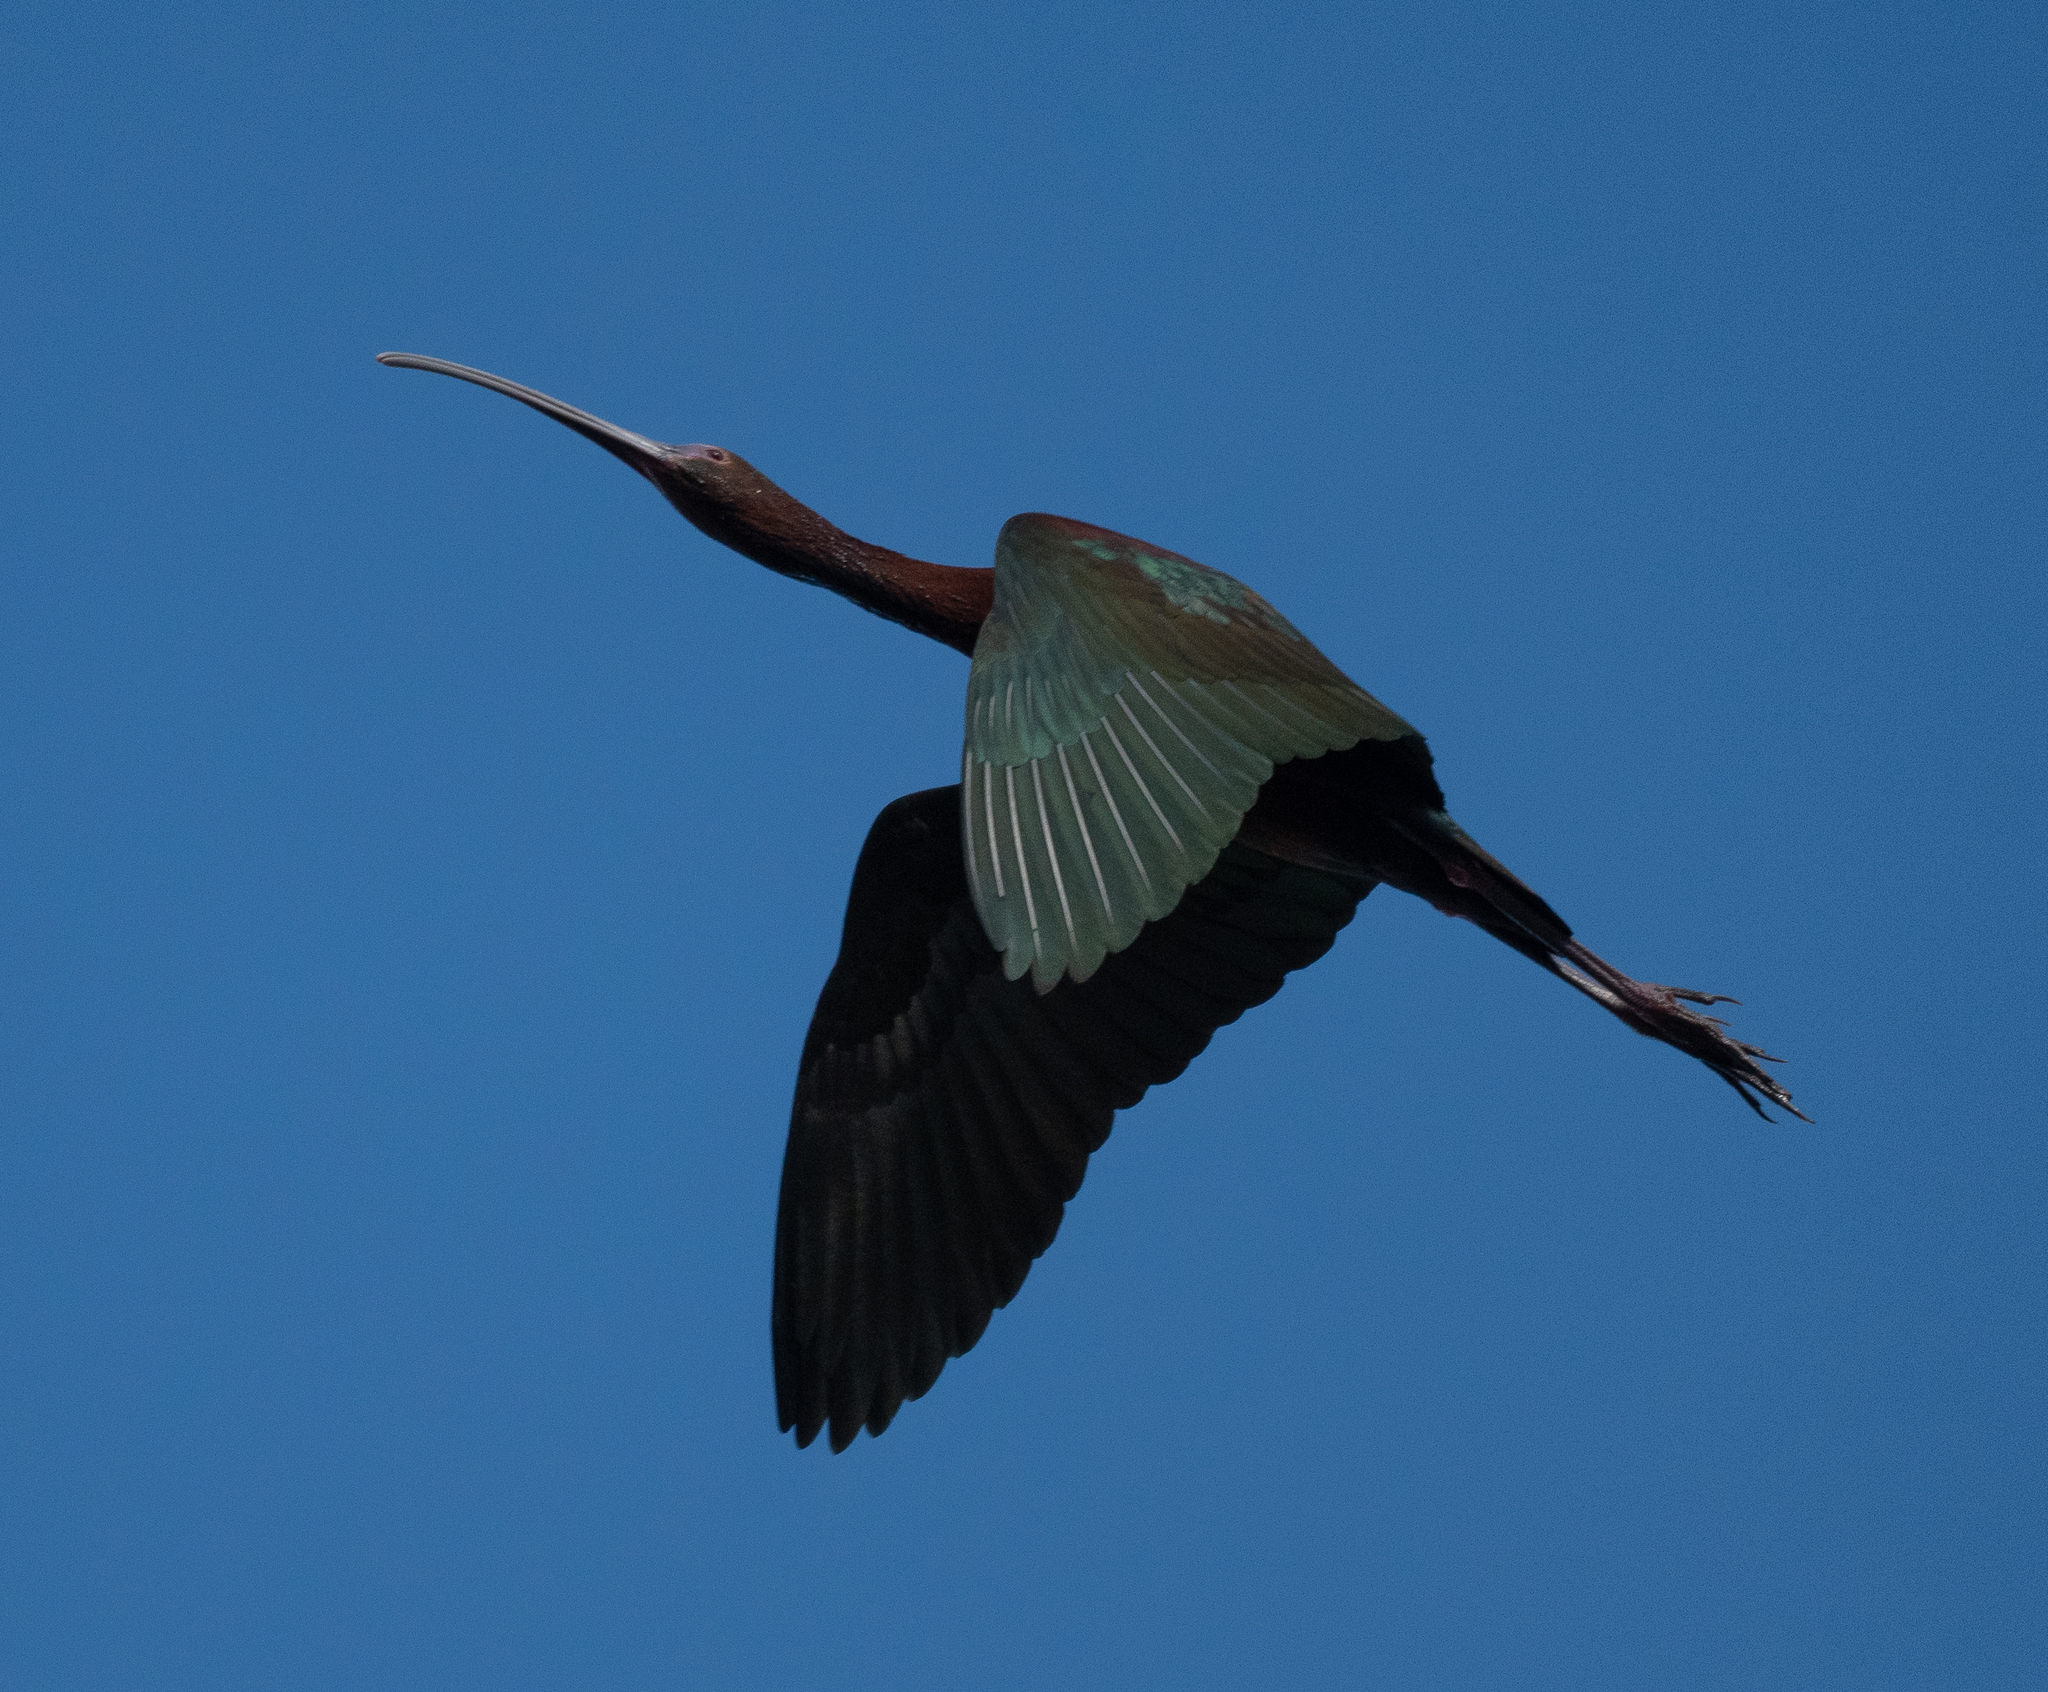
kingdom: Animalia
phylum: Chordata
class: Aves
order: Pelecaniformes
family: Threskiornithidae
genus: Plegadis
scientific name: Plegadis chihi
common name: White-faced ibis
